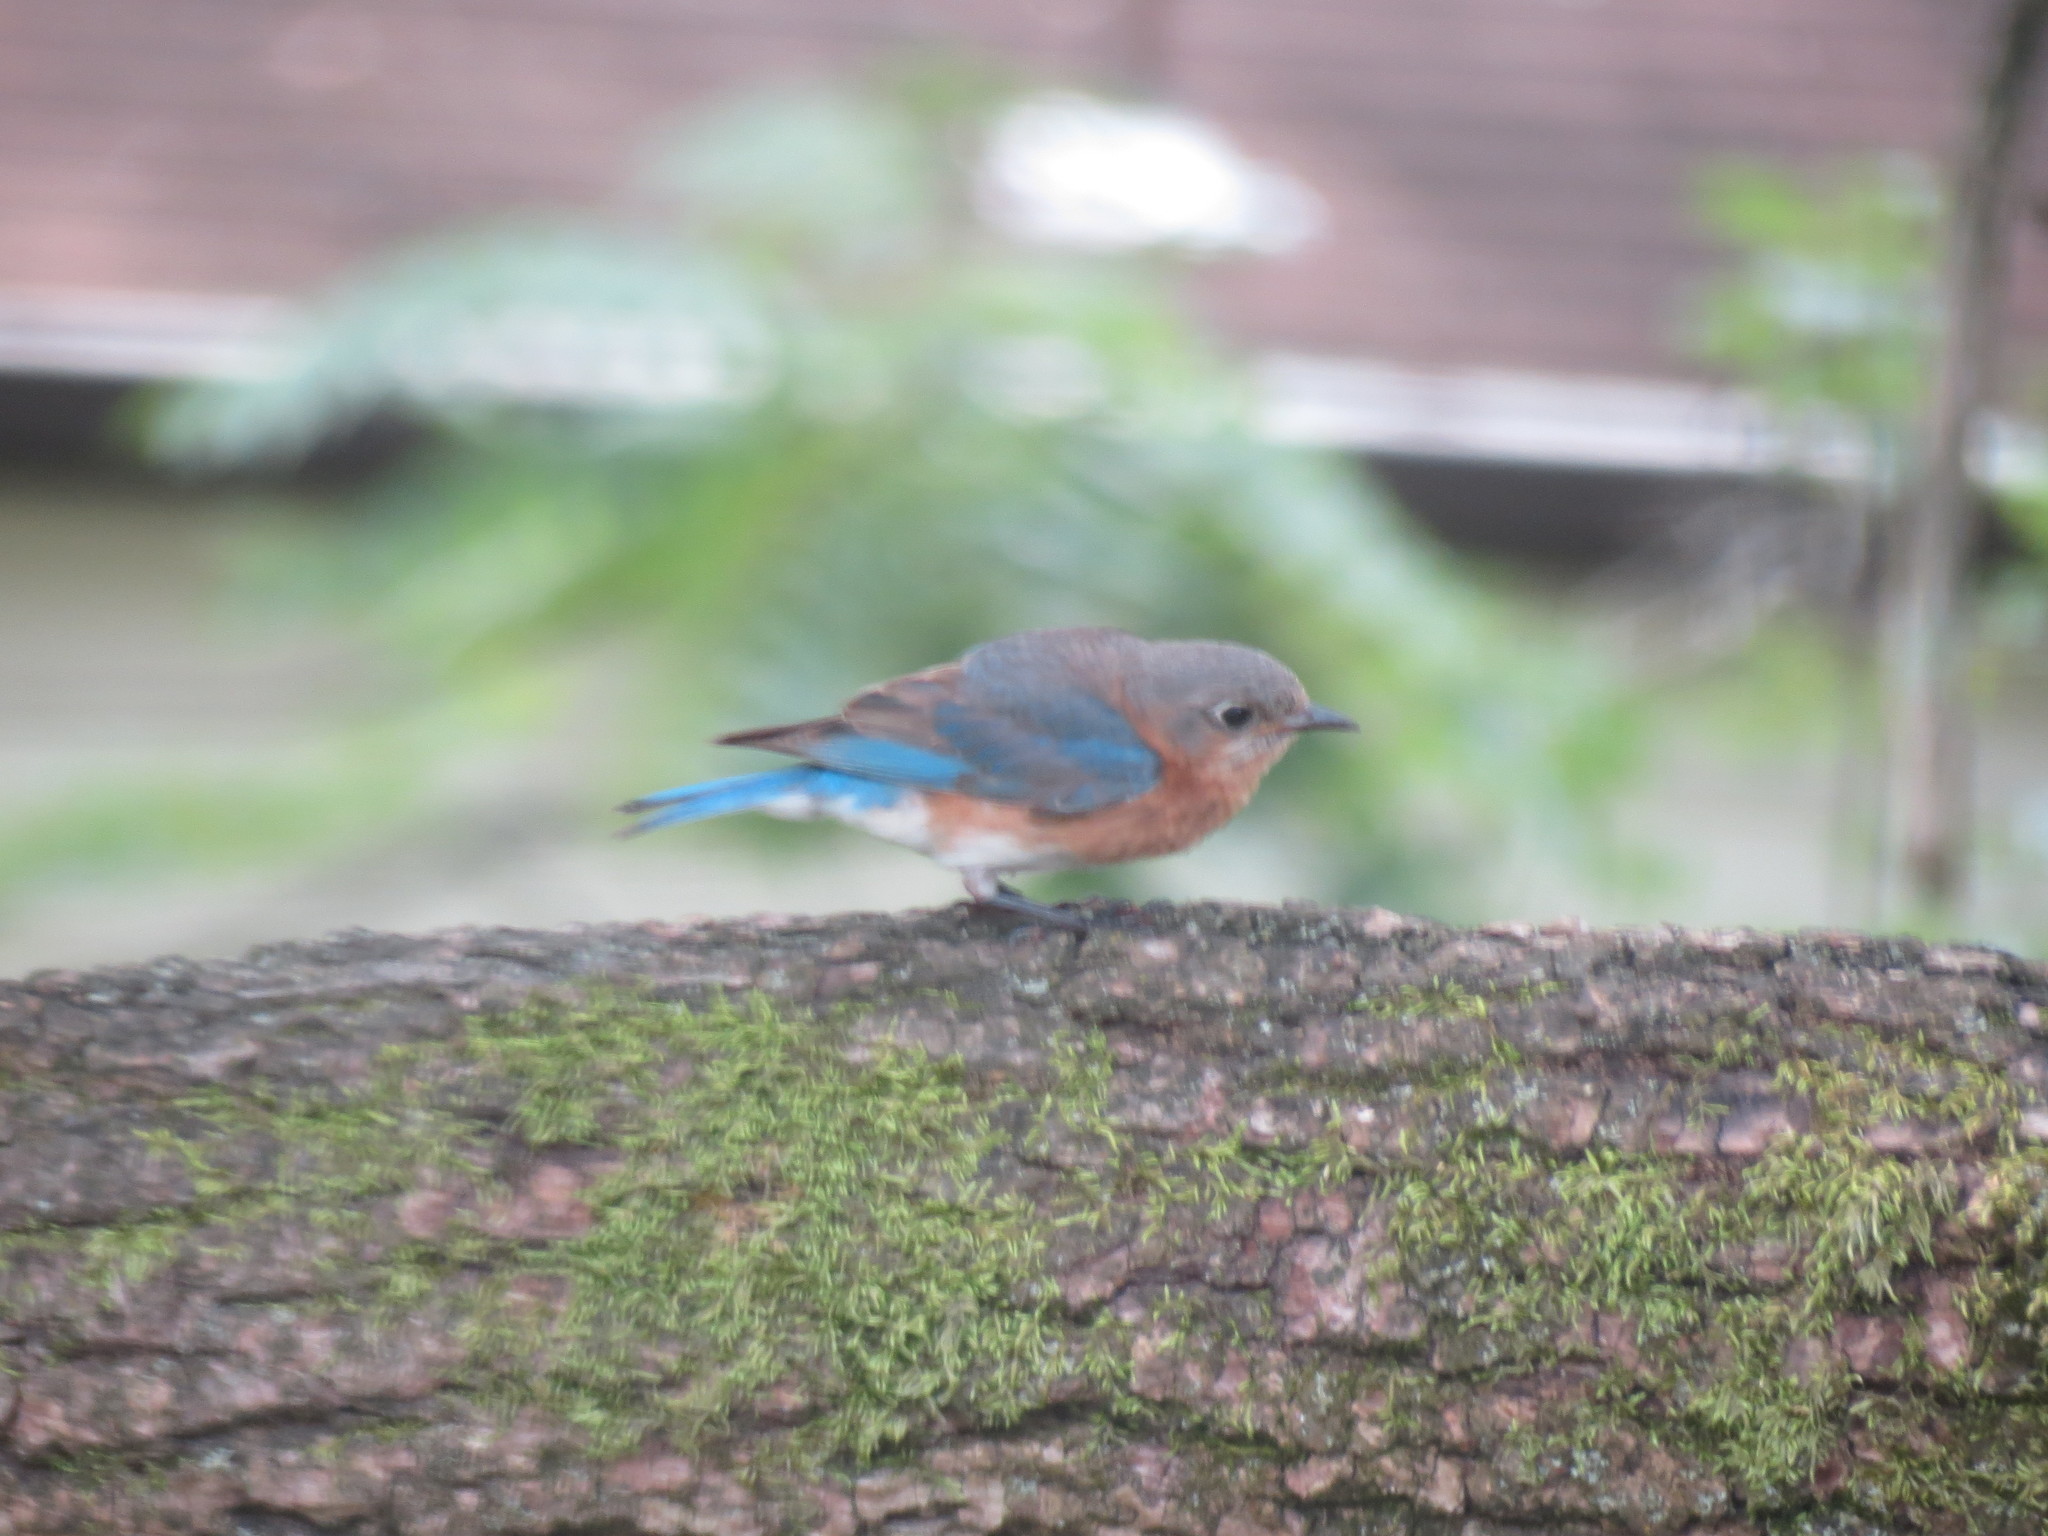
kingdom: Animalia
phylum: Chordata
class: Aves
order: Passeriformes
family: Turdidae
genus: Sialia
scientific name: Sialia sialis
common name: Eastern bluebird
